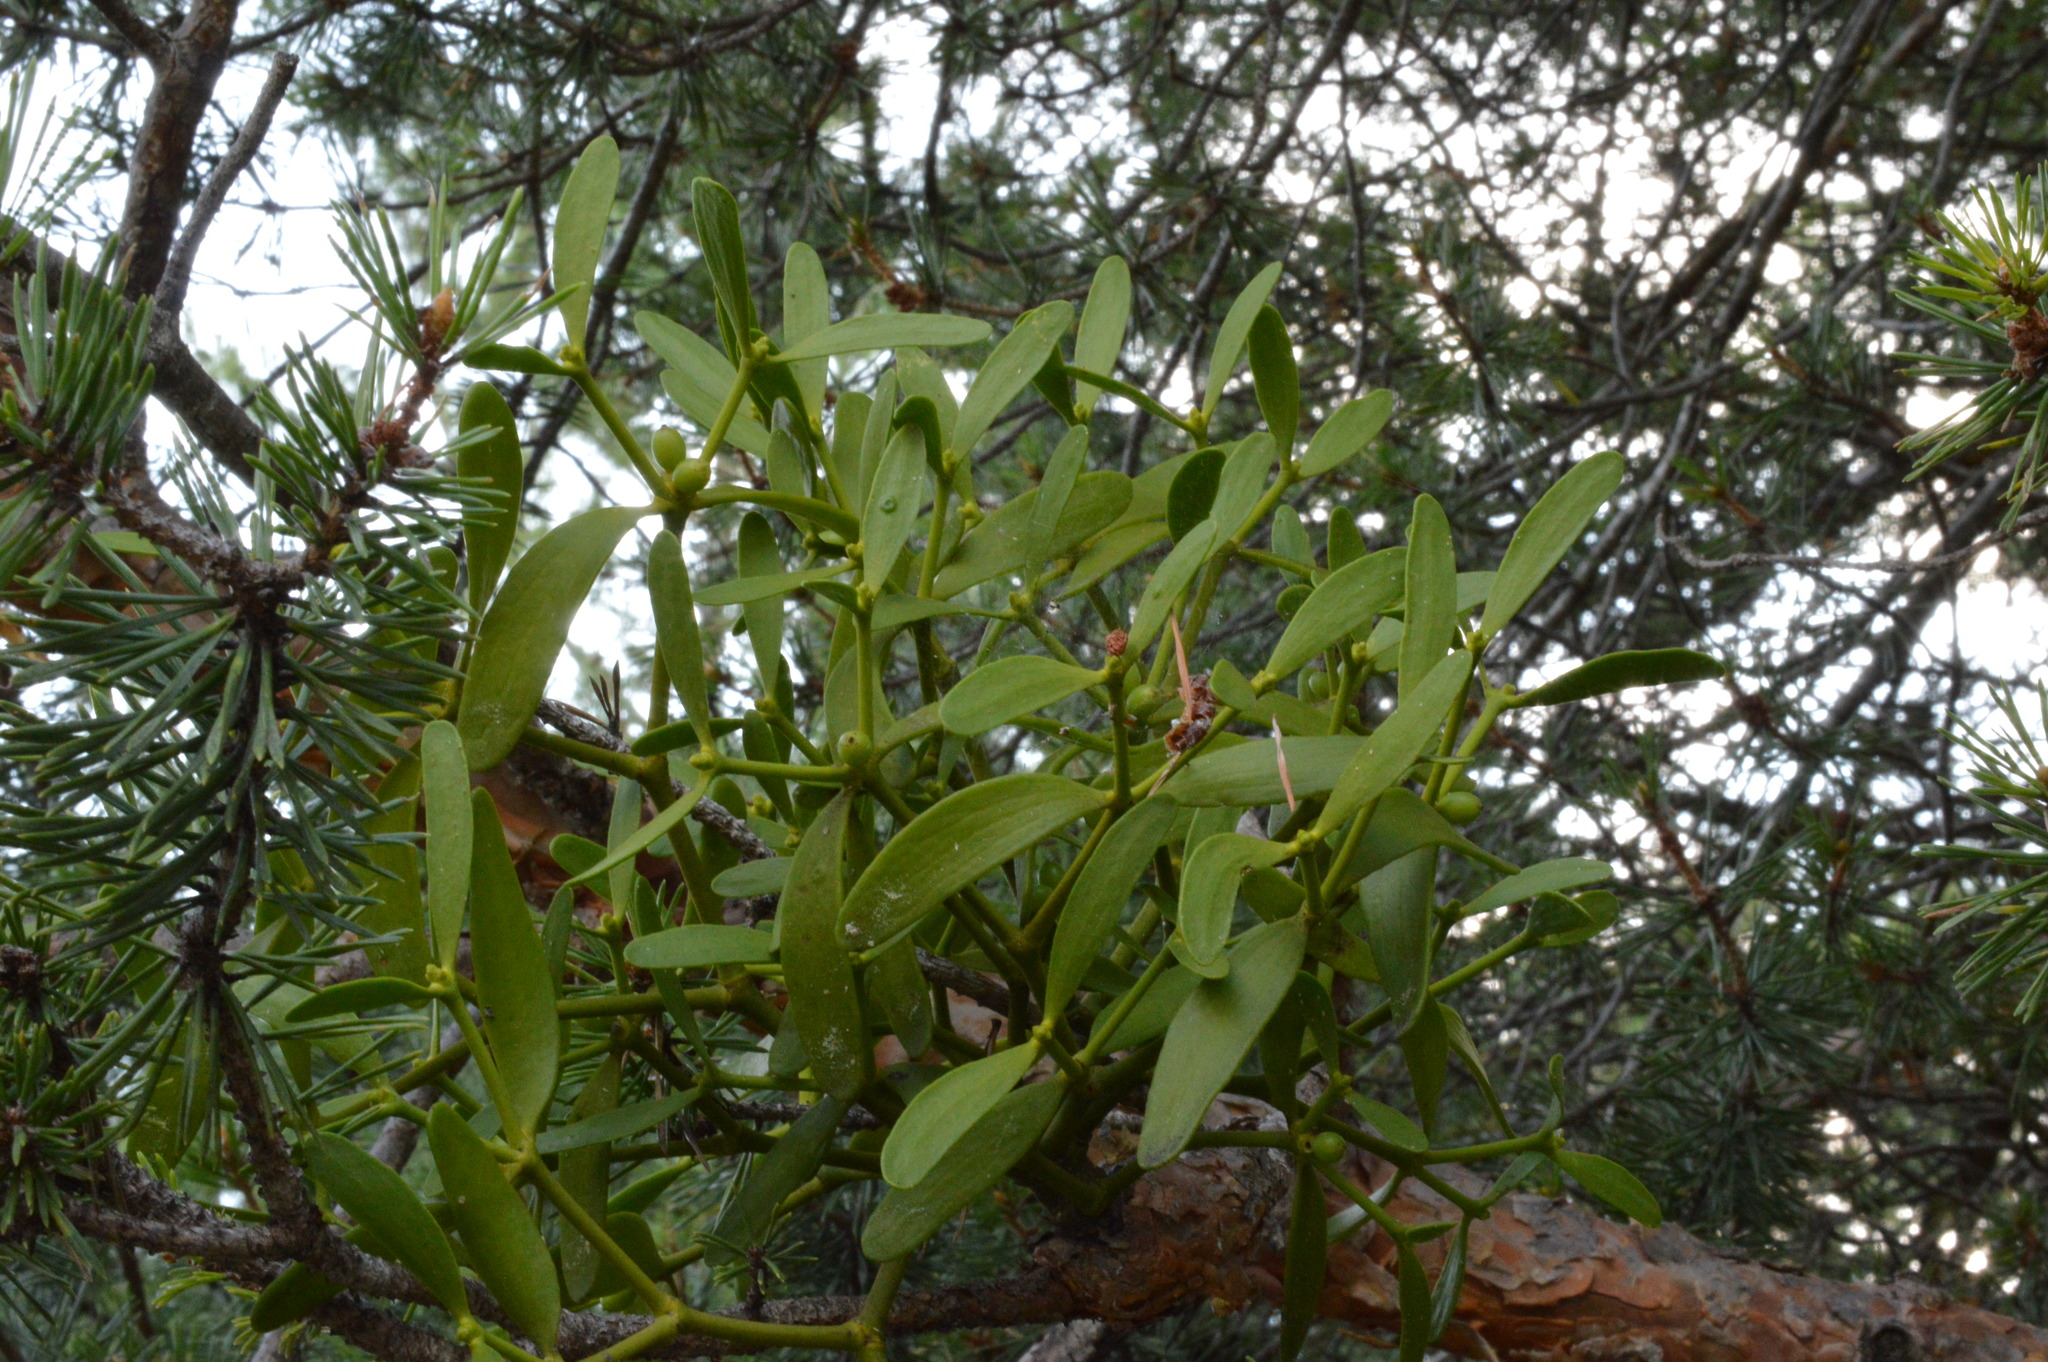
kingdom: Plantae
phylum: Tracheophyta
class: Magnoliopsida
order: Santalales
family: Viscaceae
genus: Viscum
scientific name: Viscum laxum
